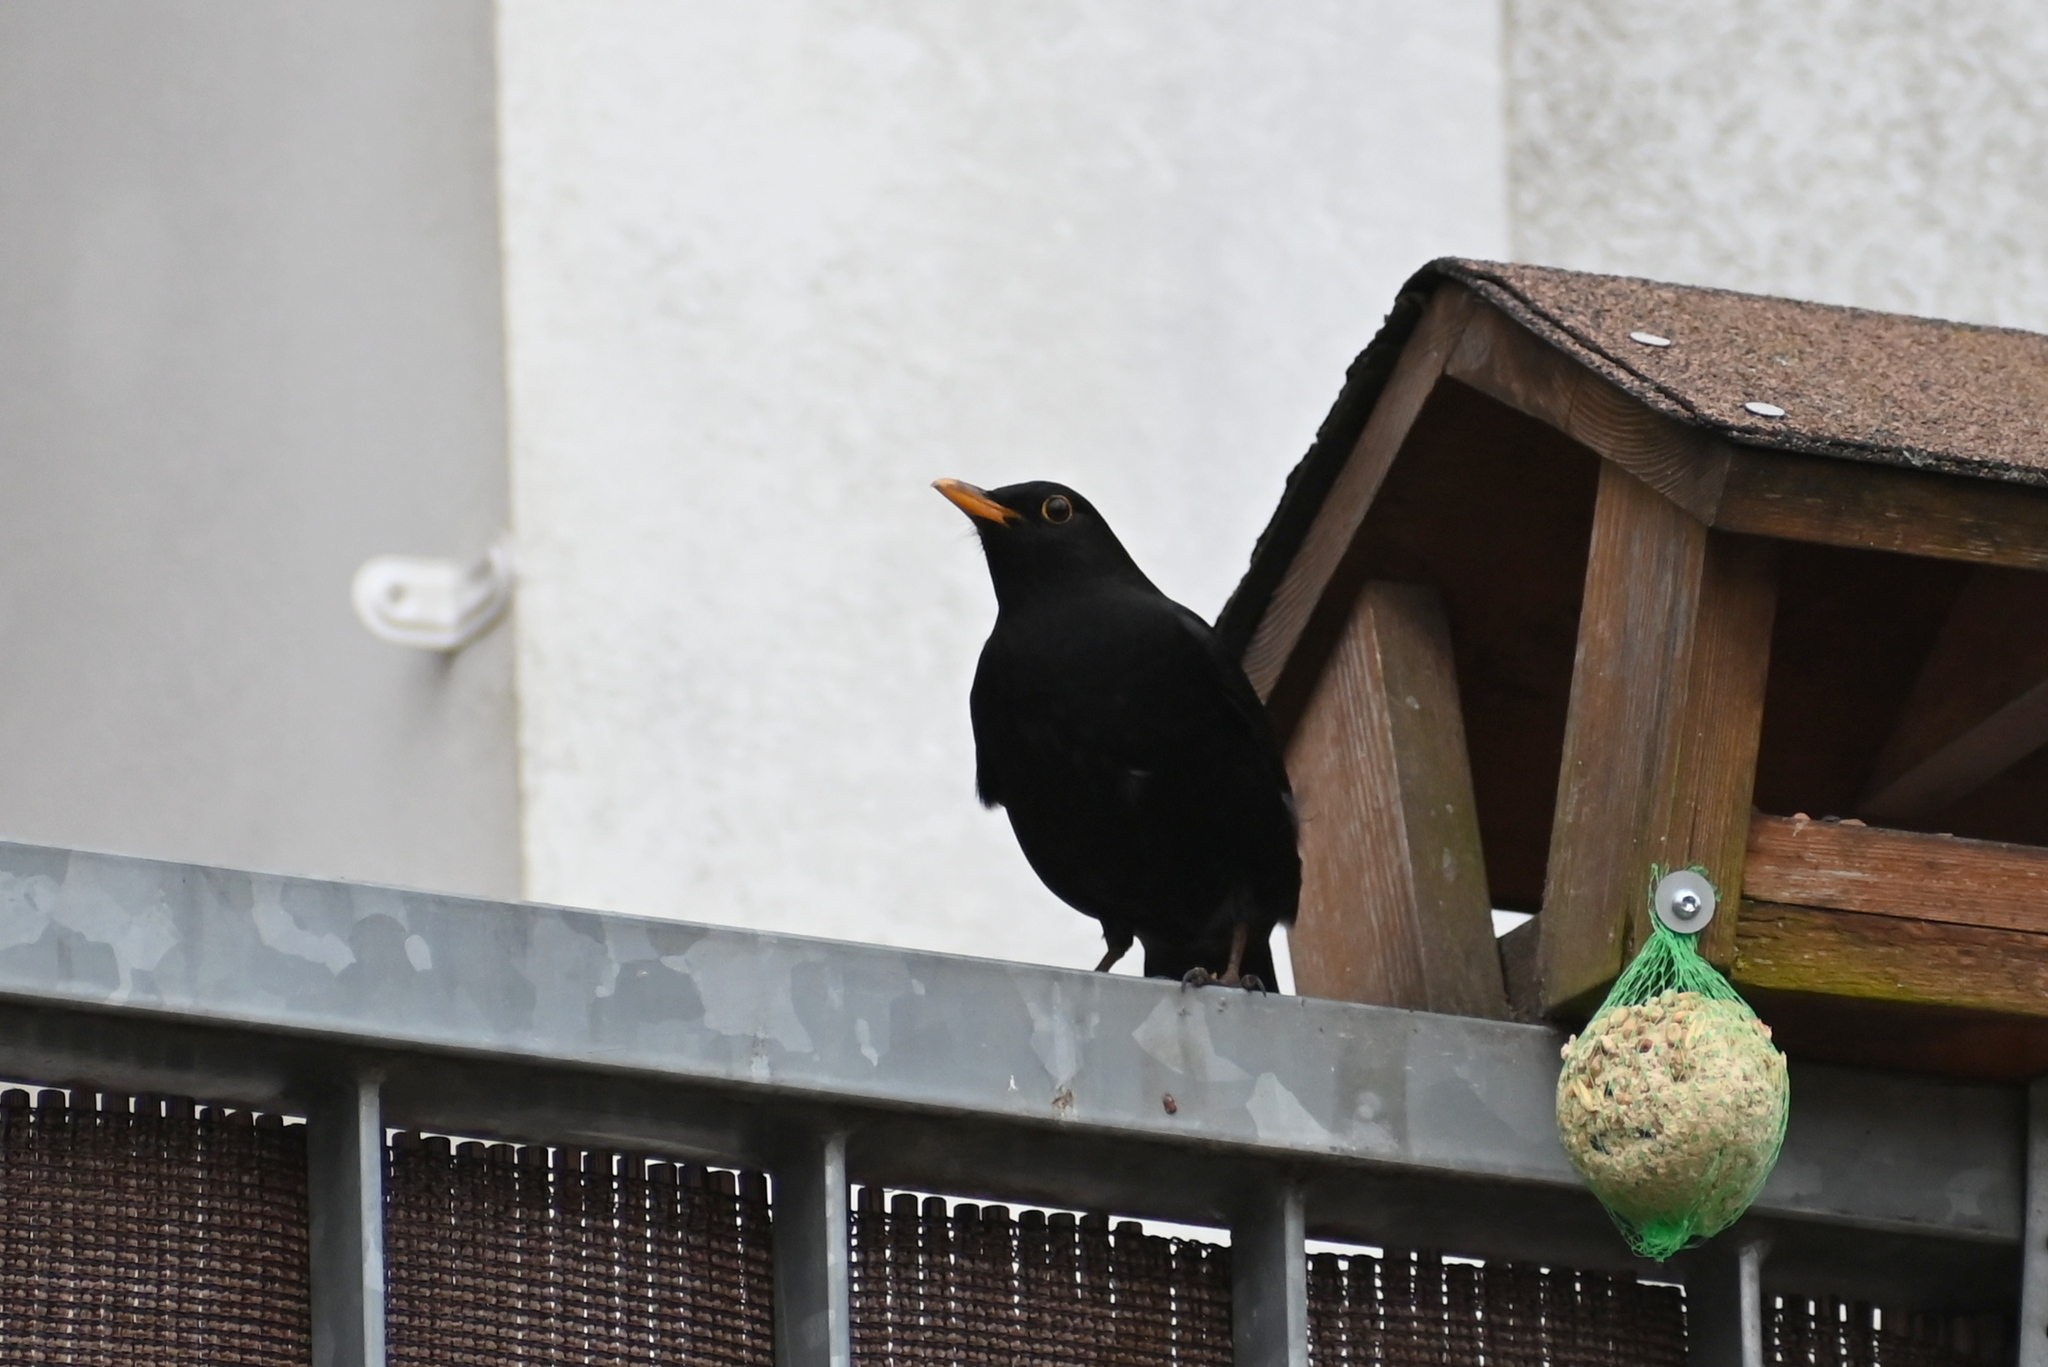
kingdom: Animalia
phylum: Chordata
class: Aves
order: Passeriformes
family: Turdidae
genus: Turdus
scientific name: Turdus merula
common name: Common blackbird
